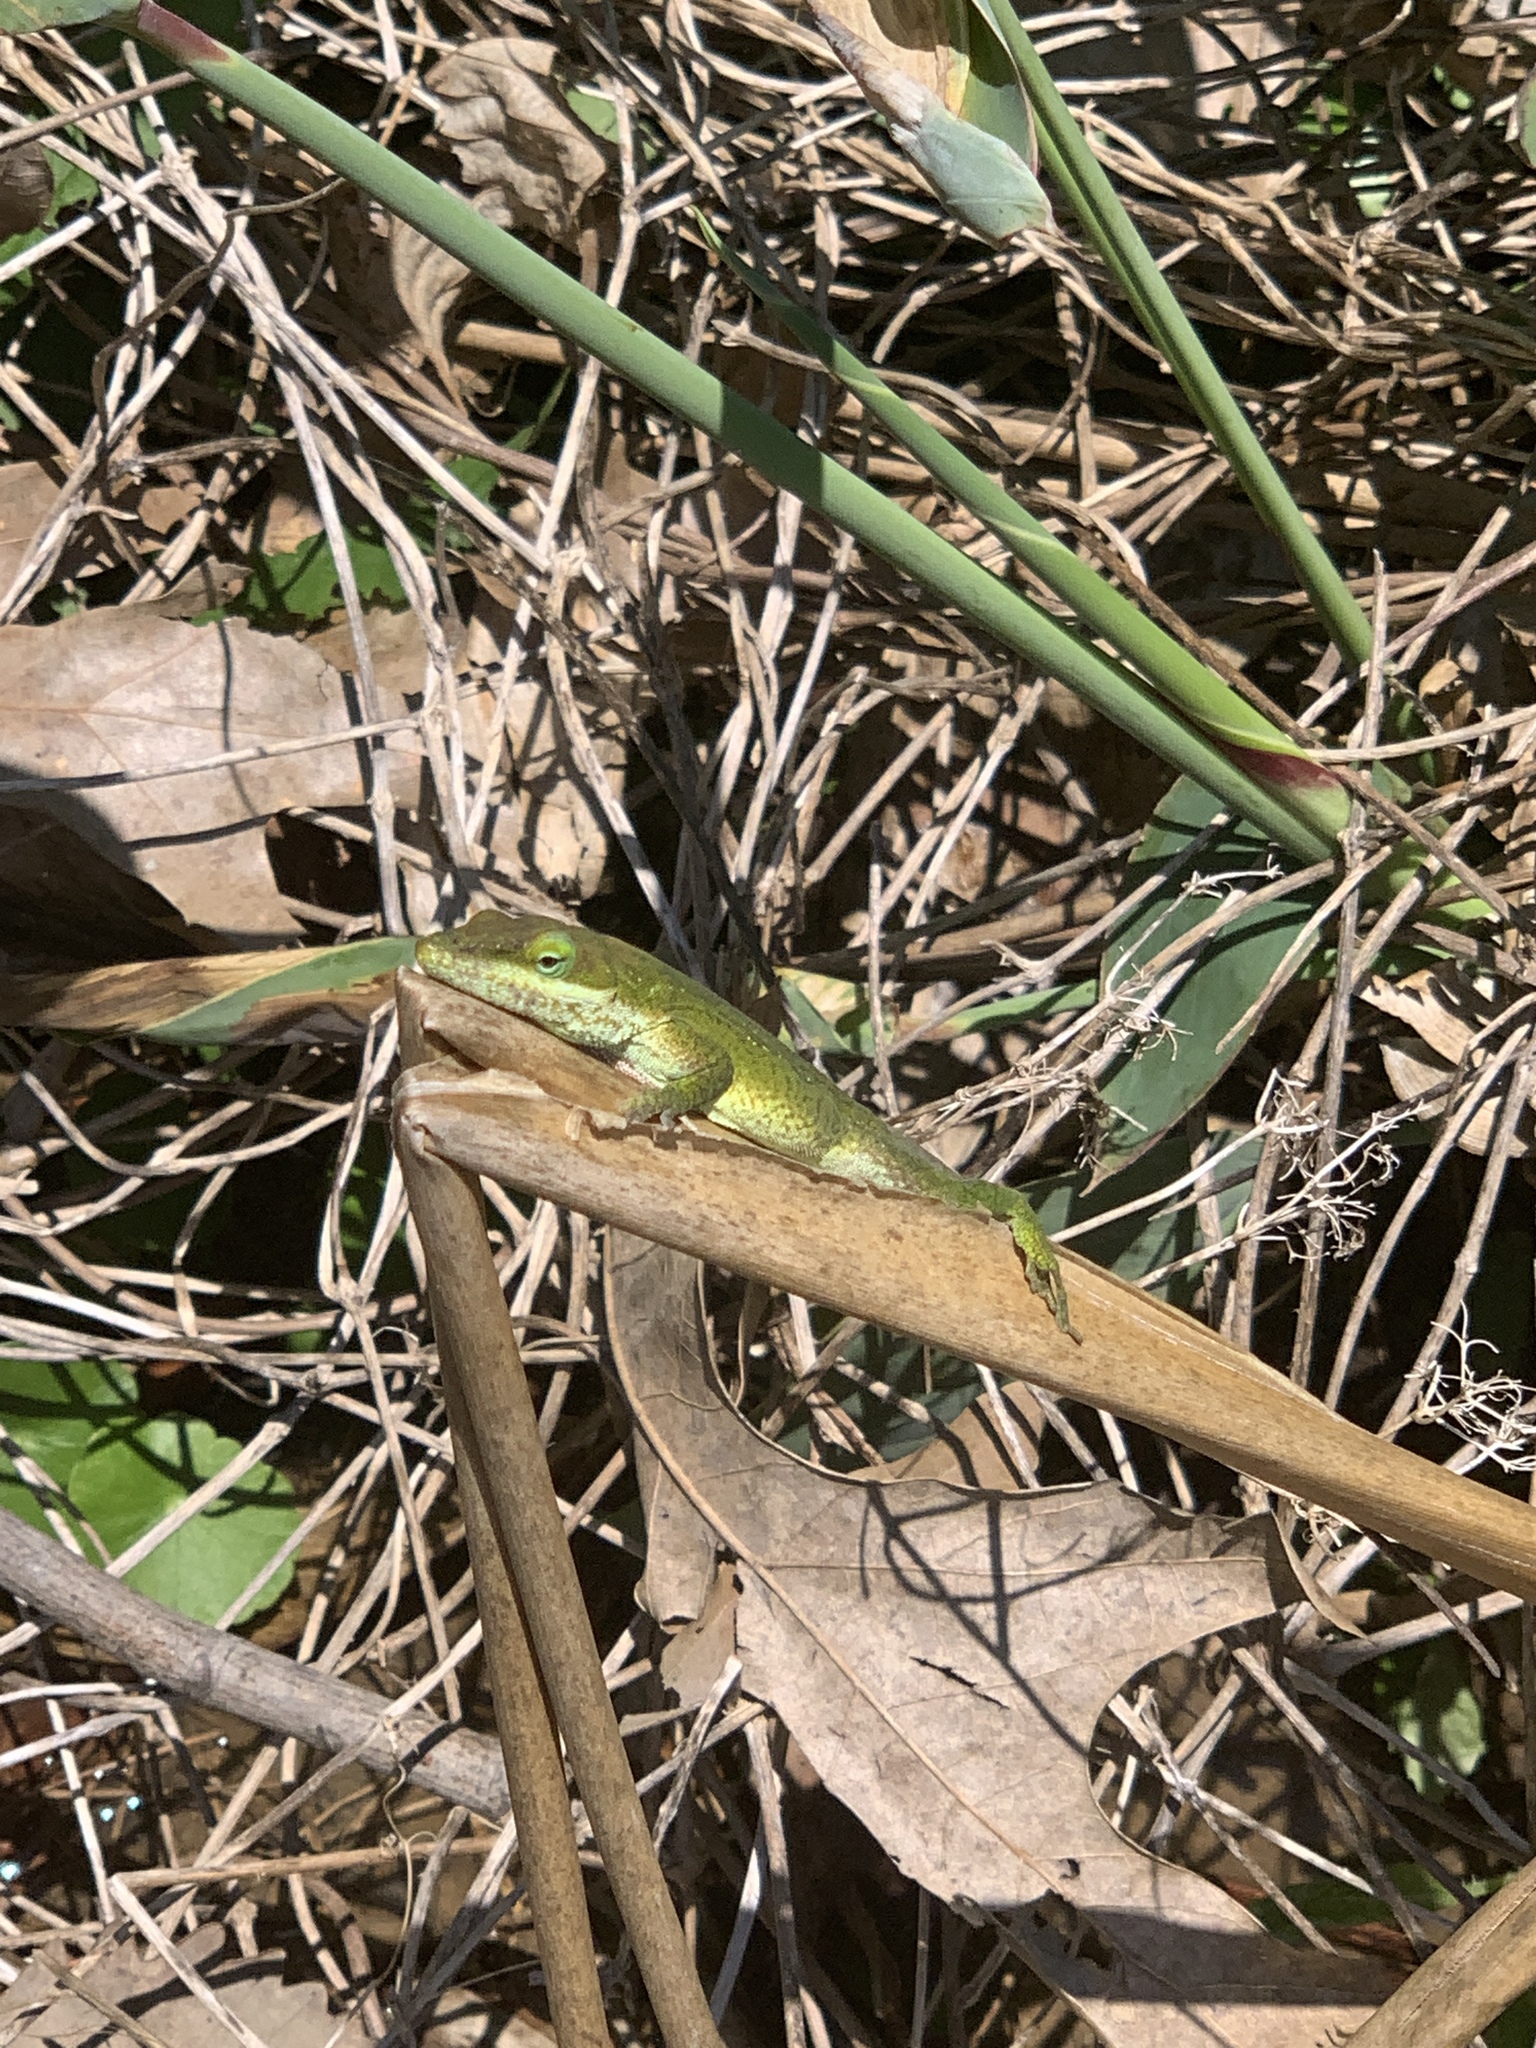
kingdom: Animalia
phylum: Chordata
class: Squamata
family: Dactyloidae
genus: Anolis
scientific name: Anolis carolinensis
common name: Green anole
